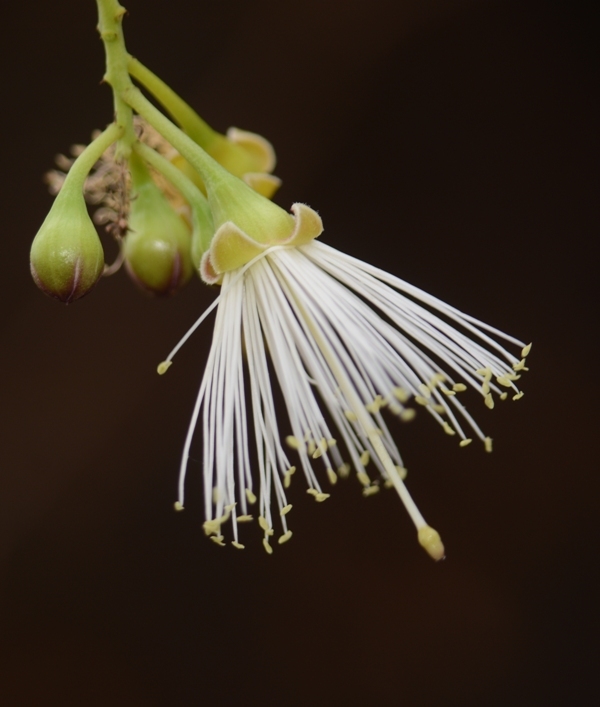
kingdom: Plantae
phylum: Tracheophyta
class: Magnoliopsida
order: Brassicales
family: Capparaceae
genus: Maerua
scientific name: Maerua apetala
